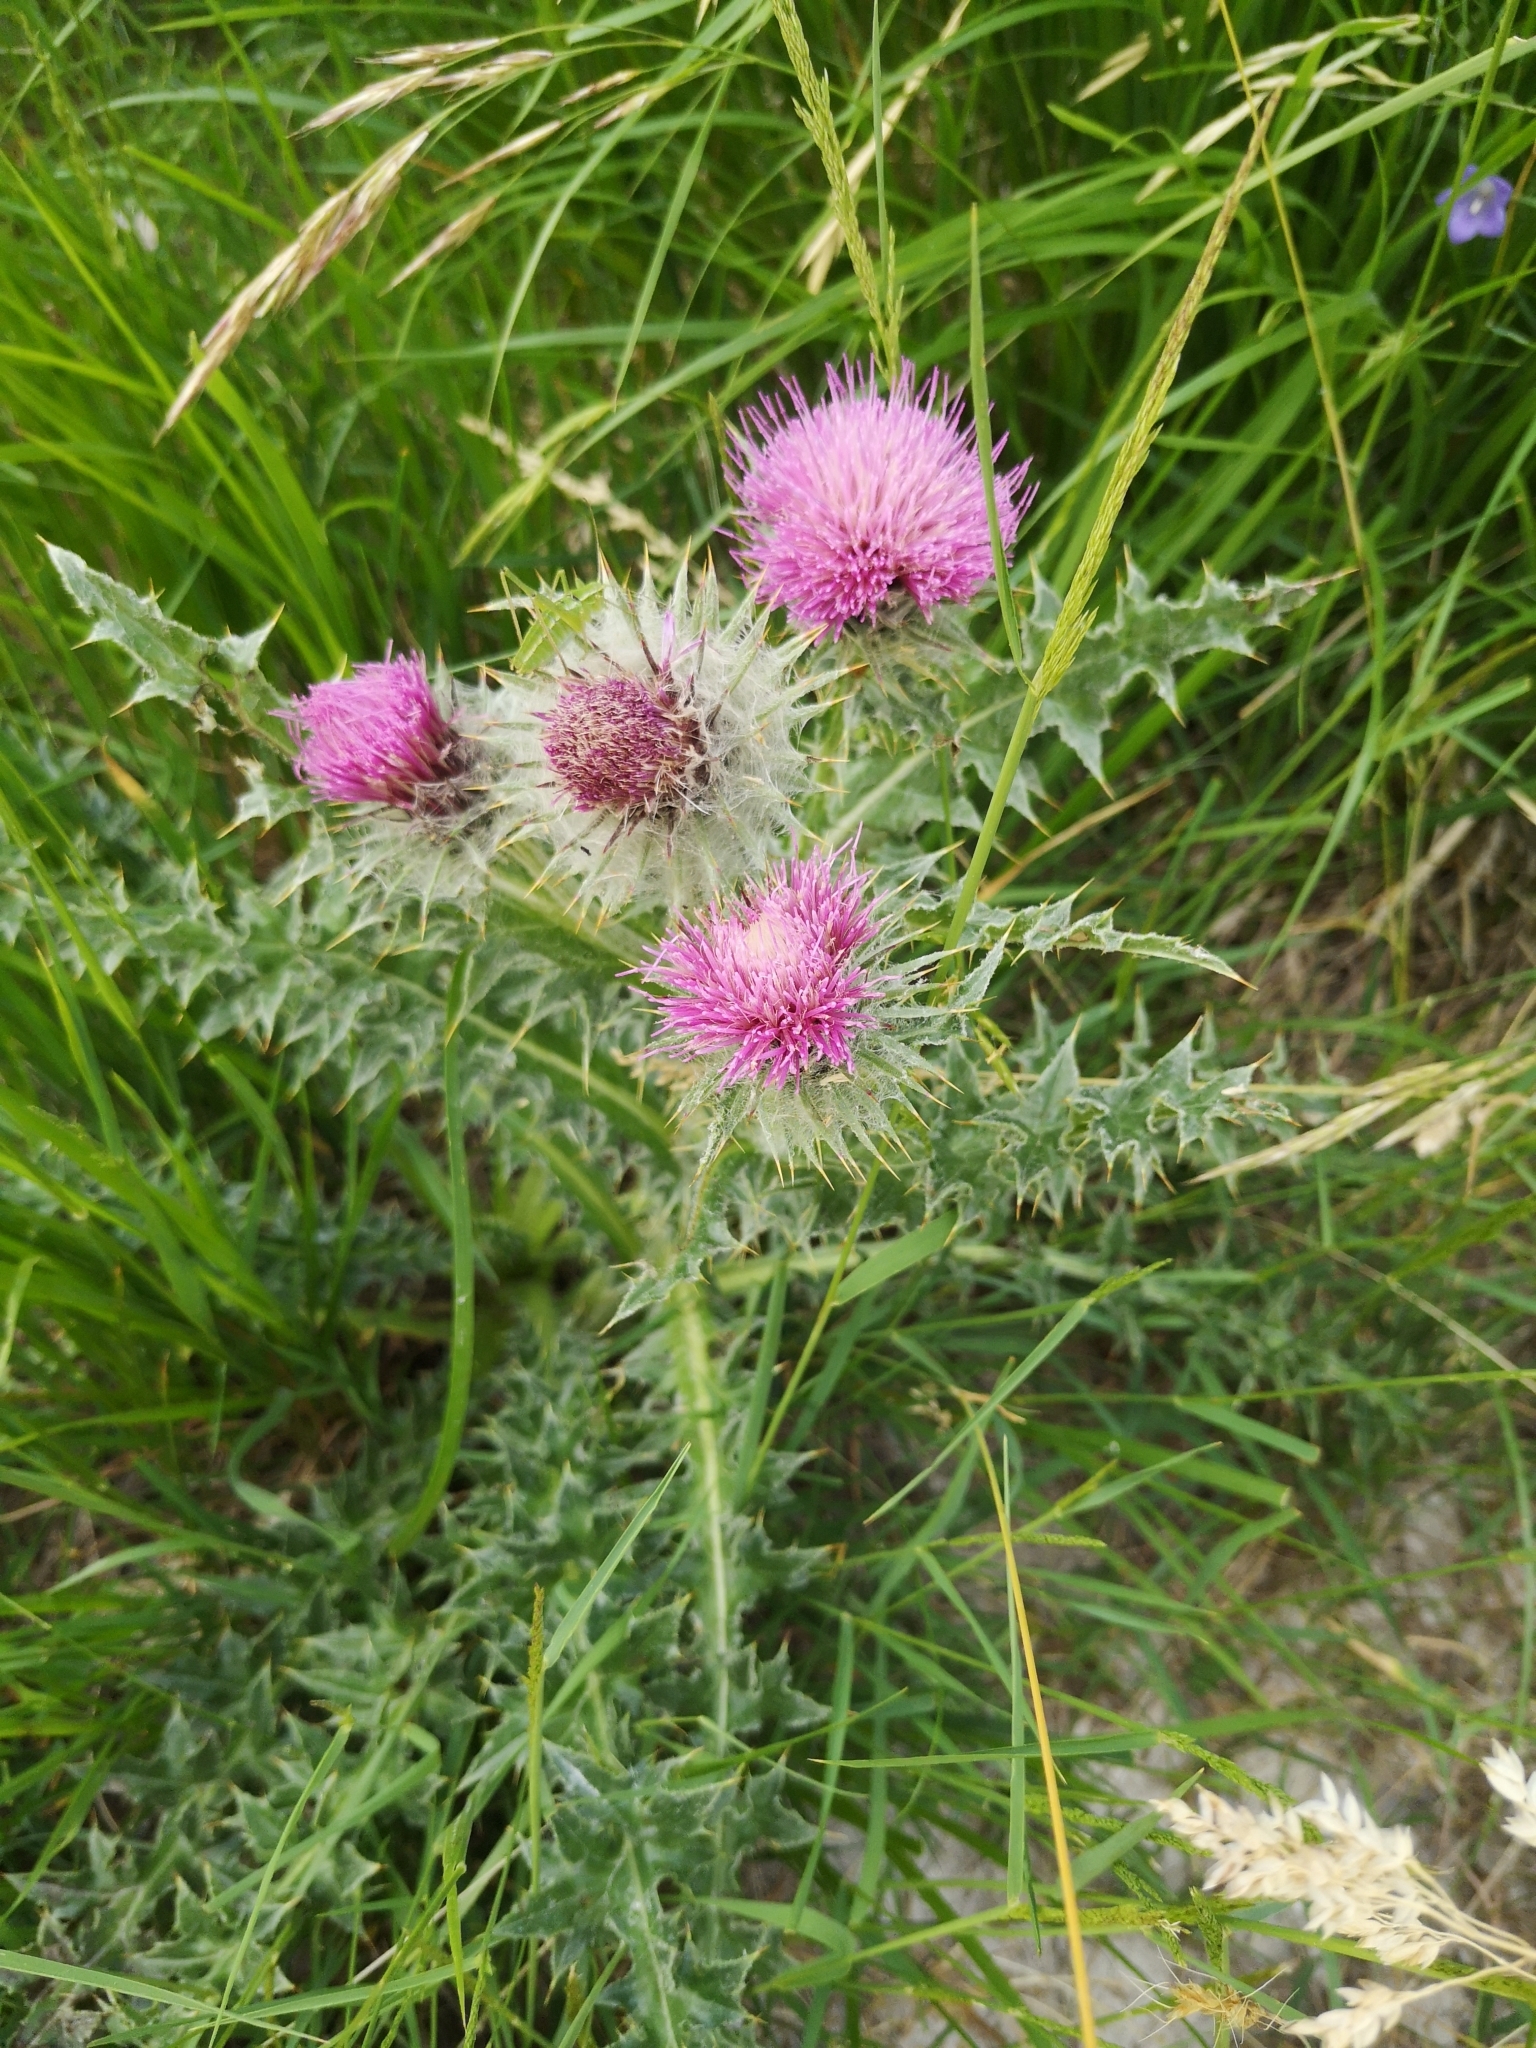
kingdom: Plantae
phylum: Tracheophyta
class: Magnoliopsida
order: Asterales
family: Asteraceae
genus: Carduus
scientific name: Carduus chrysacanthus
